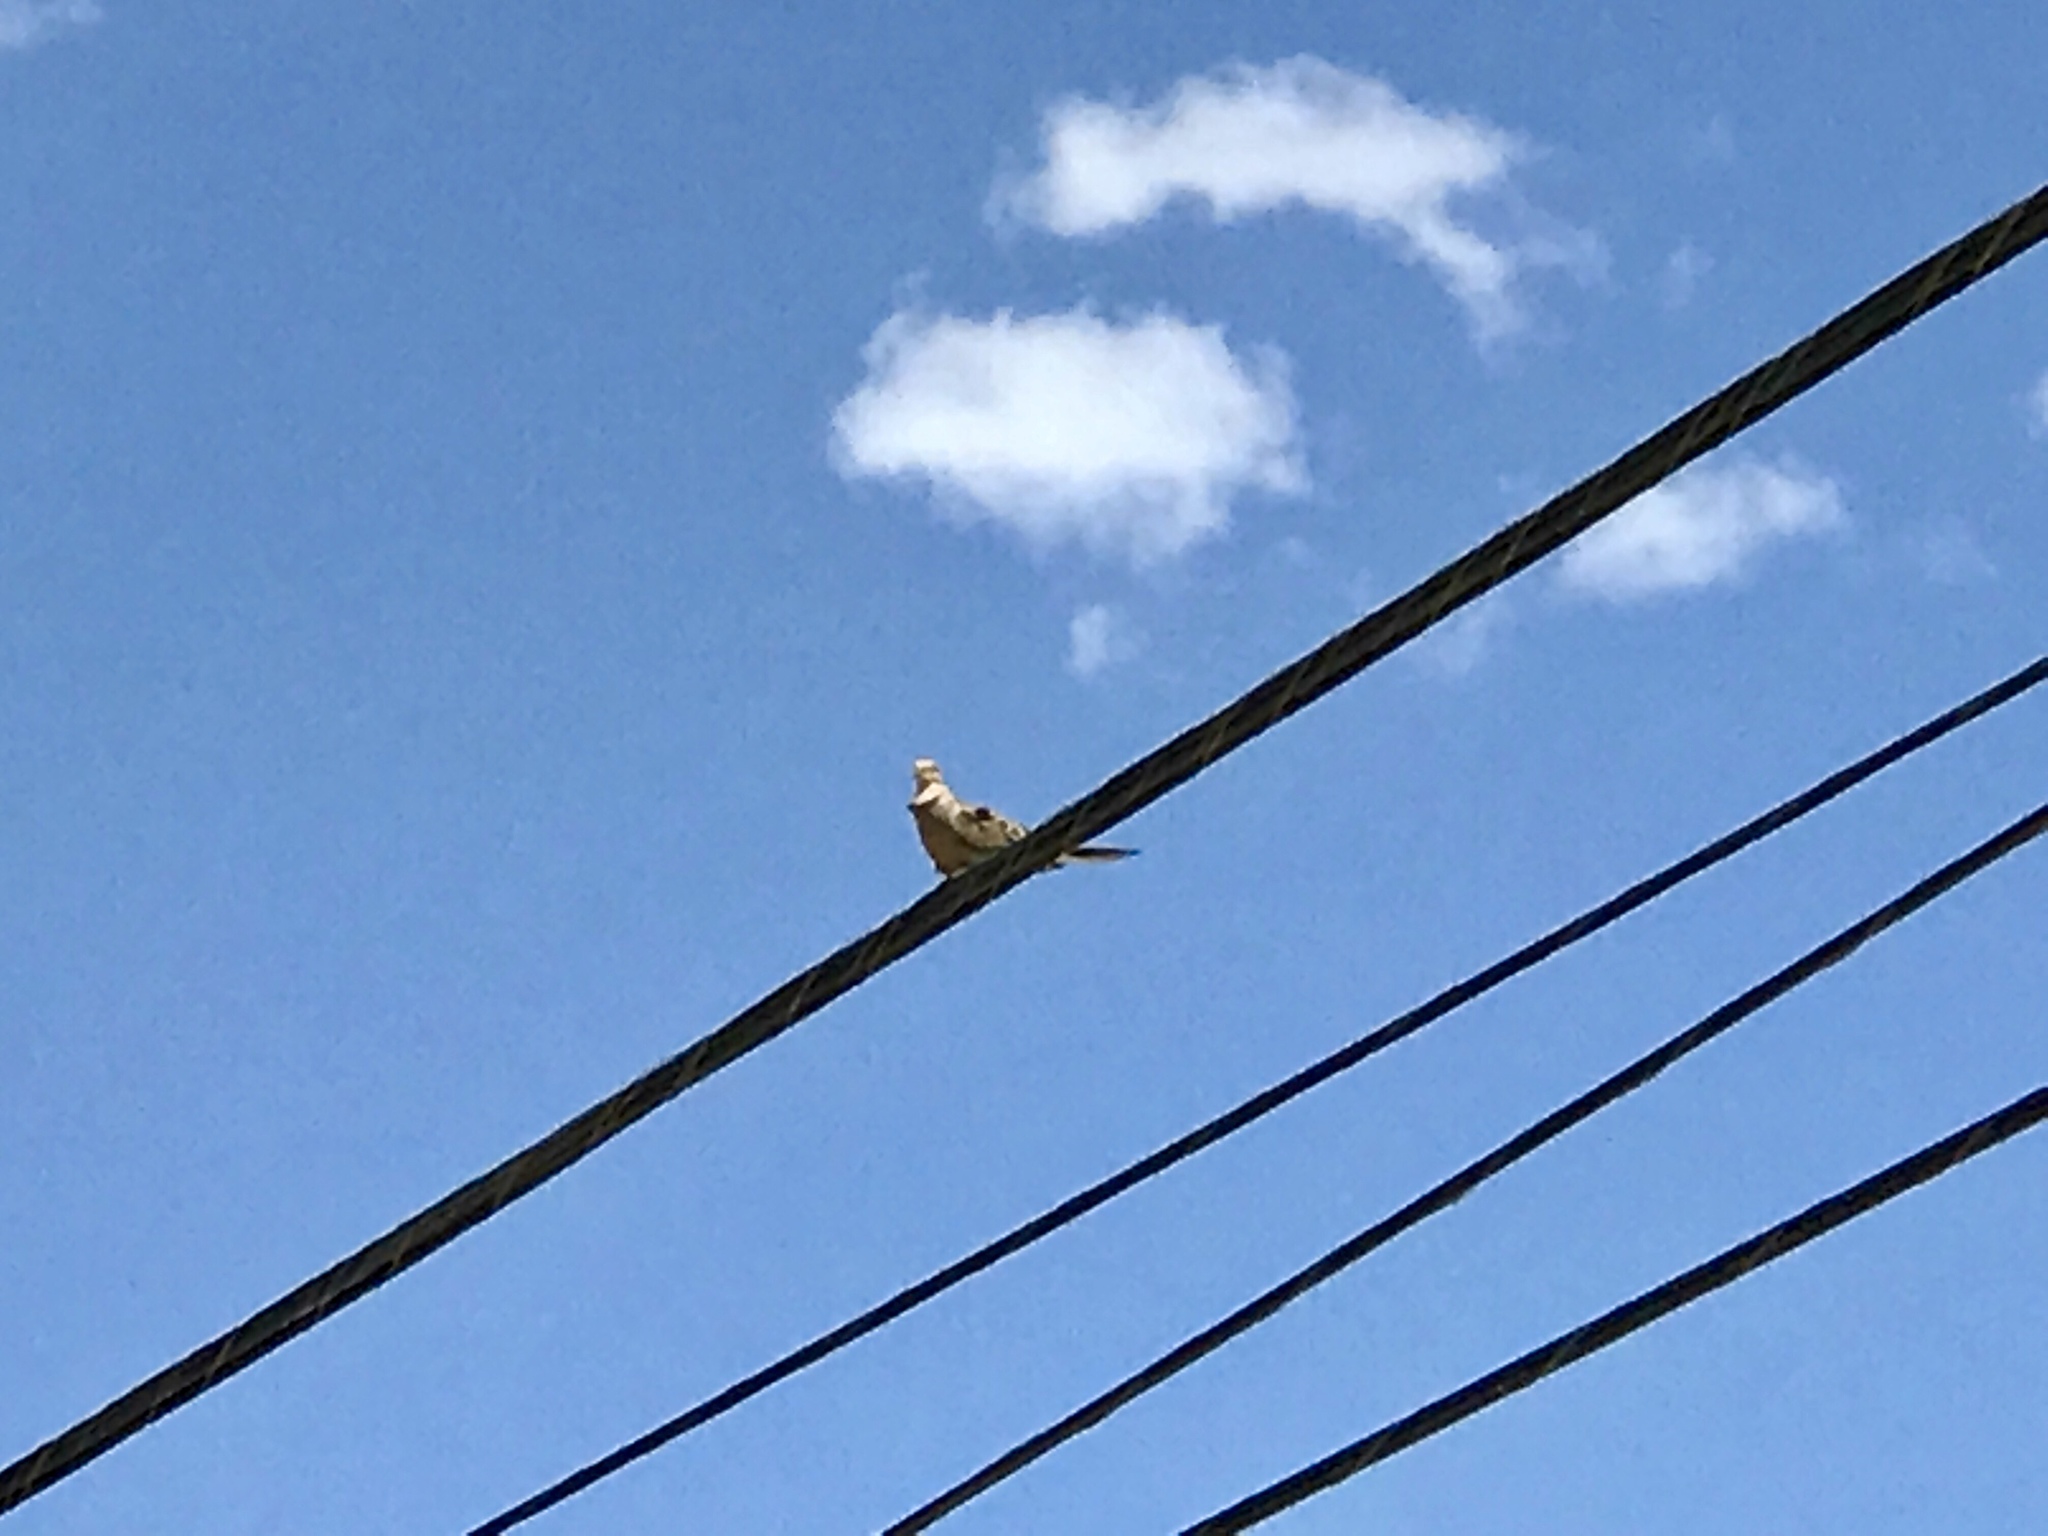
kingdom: Animalia
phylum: Chordata
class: Aves
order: Columbiformes
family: Columbidae
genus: Zenaida
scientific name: Zenaida macroura
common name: Mourning dove
